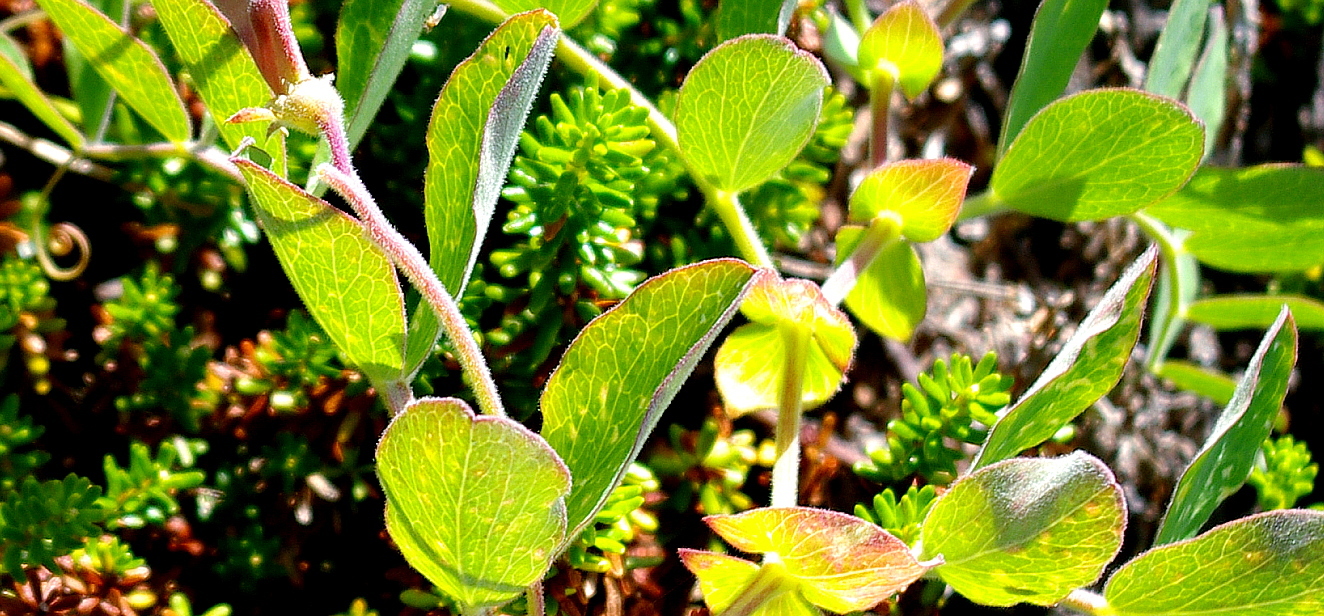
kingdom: Plantae
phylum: Tracheophyta
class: Magnoliopsida
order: Fabales
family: Fabaceae
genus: Lathyrus
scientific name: Lathyrus japonicus
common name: Sea pea
